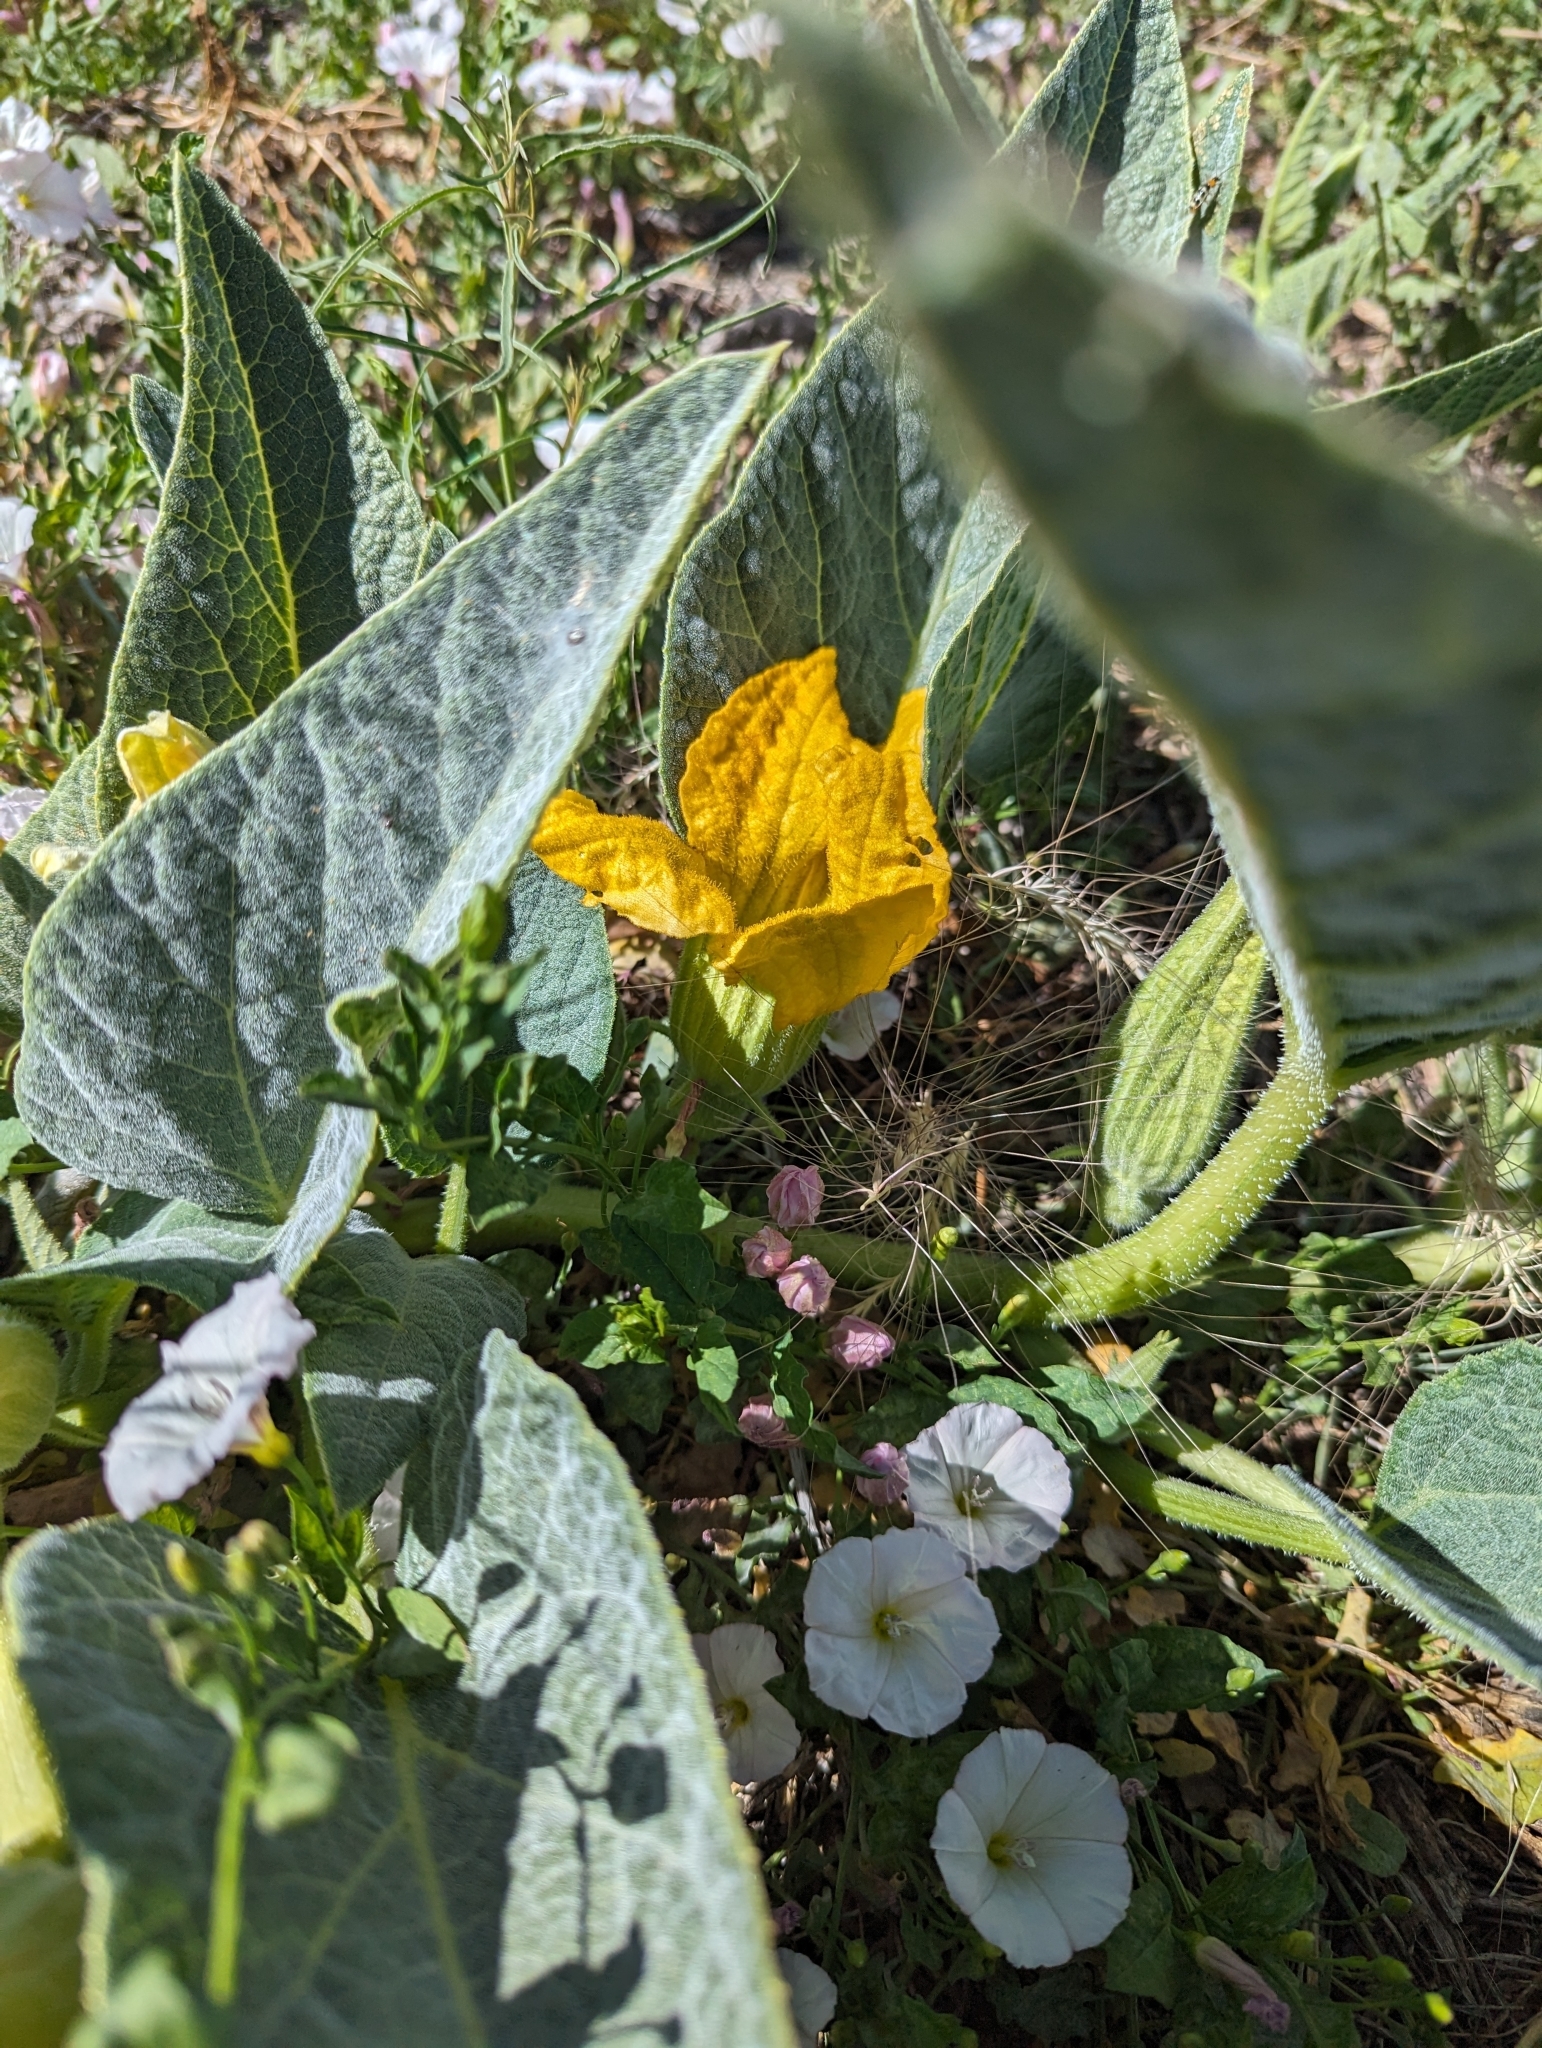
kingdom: Plantae
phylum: Tracheophyta
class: Magnoliopsida
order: Cucurbitales
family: Cucurbitaceae
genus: Cucurbita
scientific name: Cucurbita foetidissima
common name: Buffalo gourd
